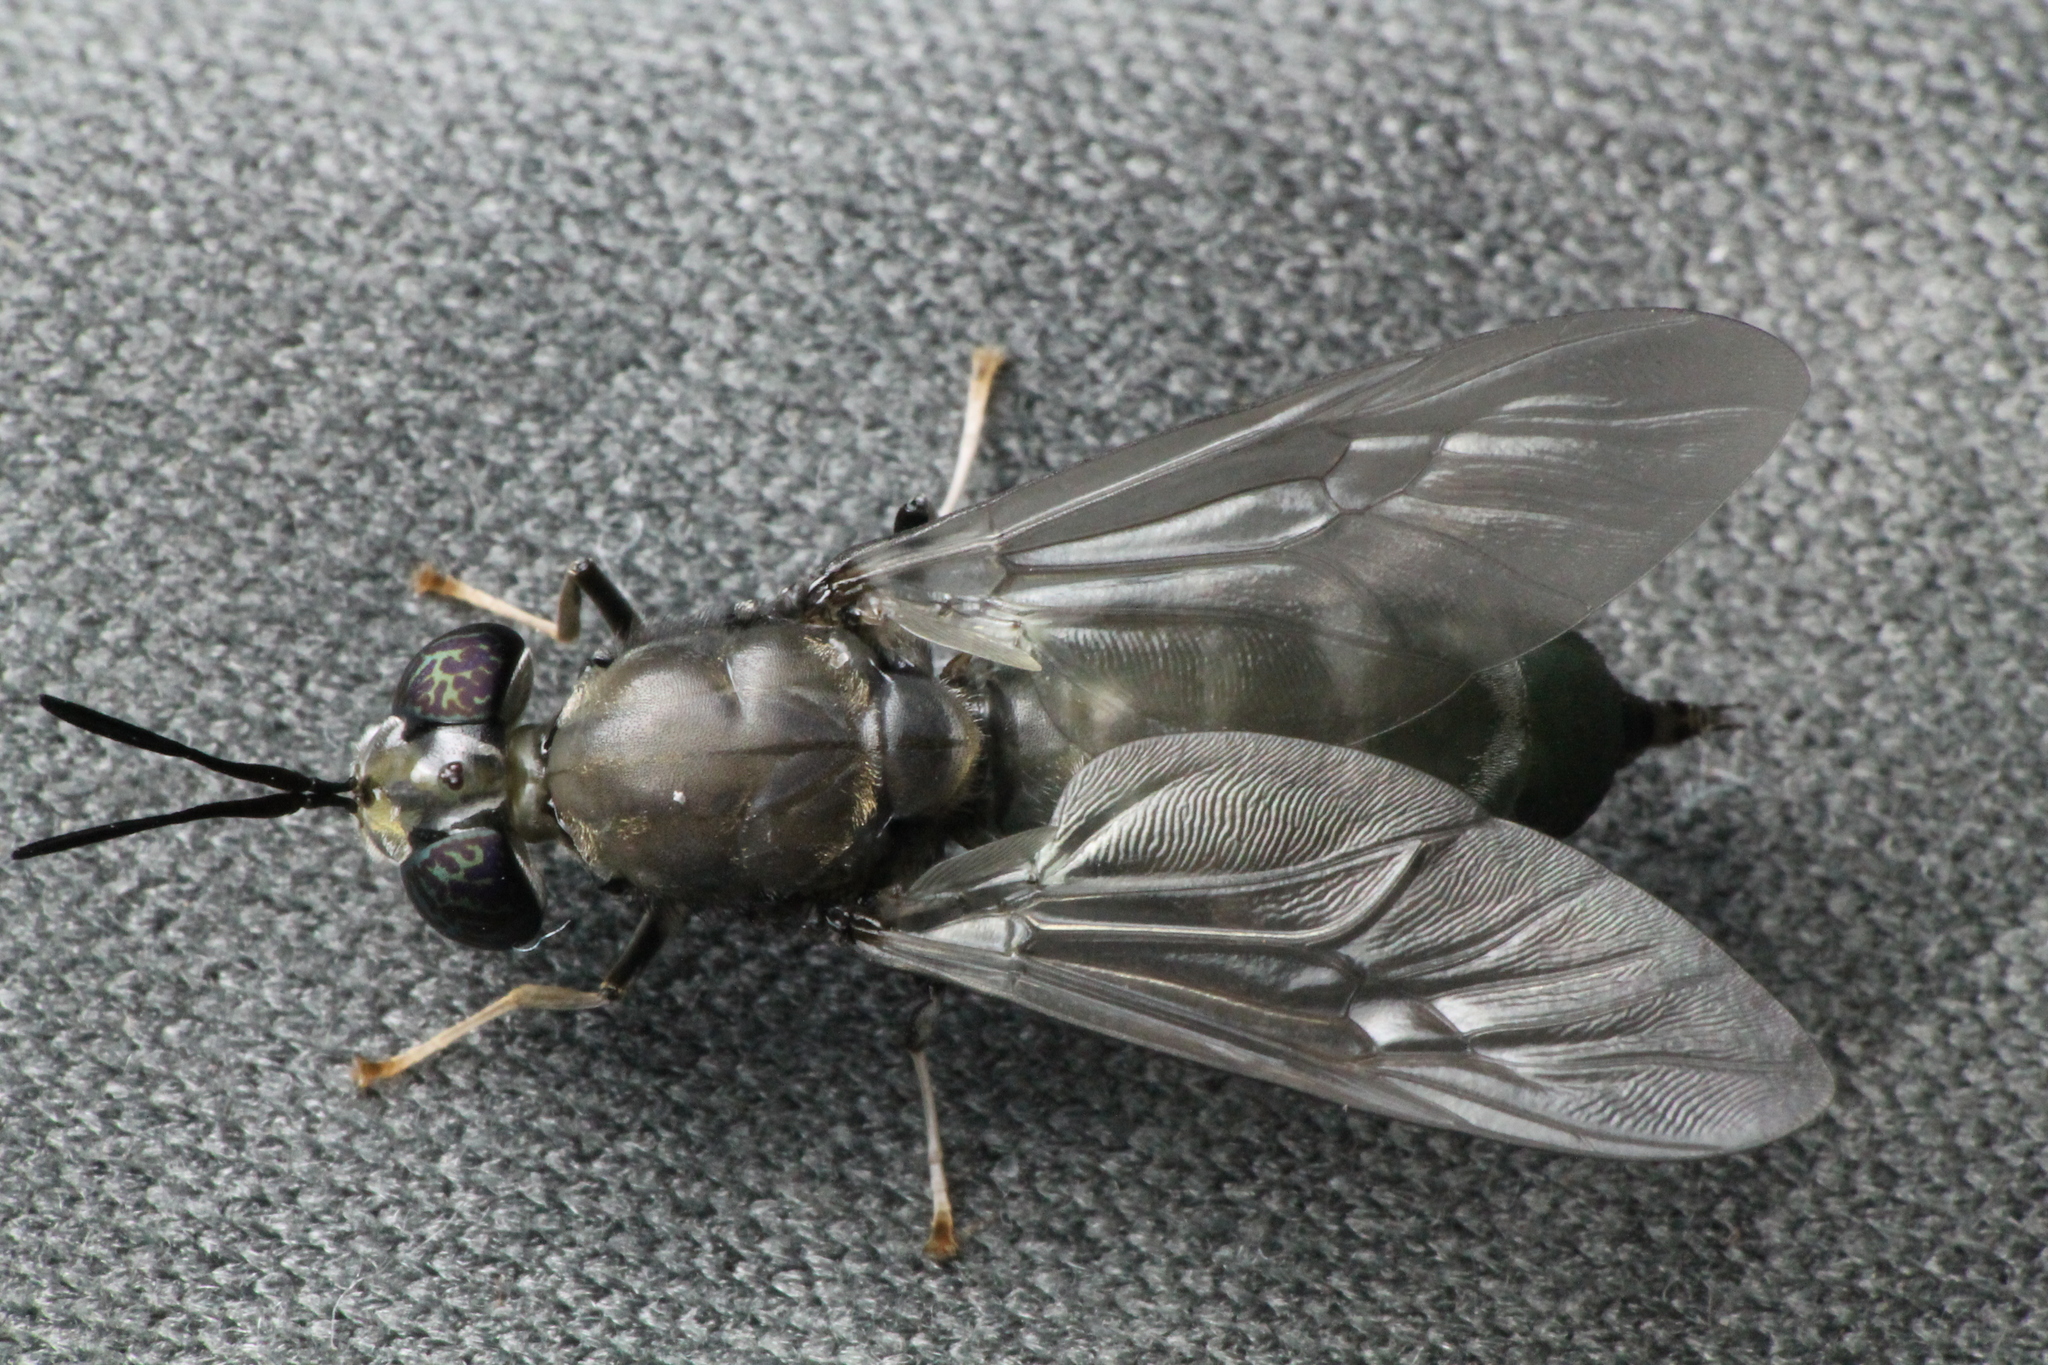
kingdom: Animalia
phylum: Arthropoda
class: Insecta
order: Diptera
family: Stratiomyidae
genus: Hermetia
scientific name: Hermetia illucens
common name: Black soldier fly
